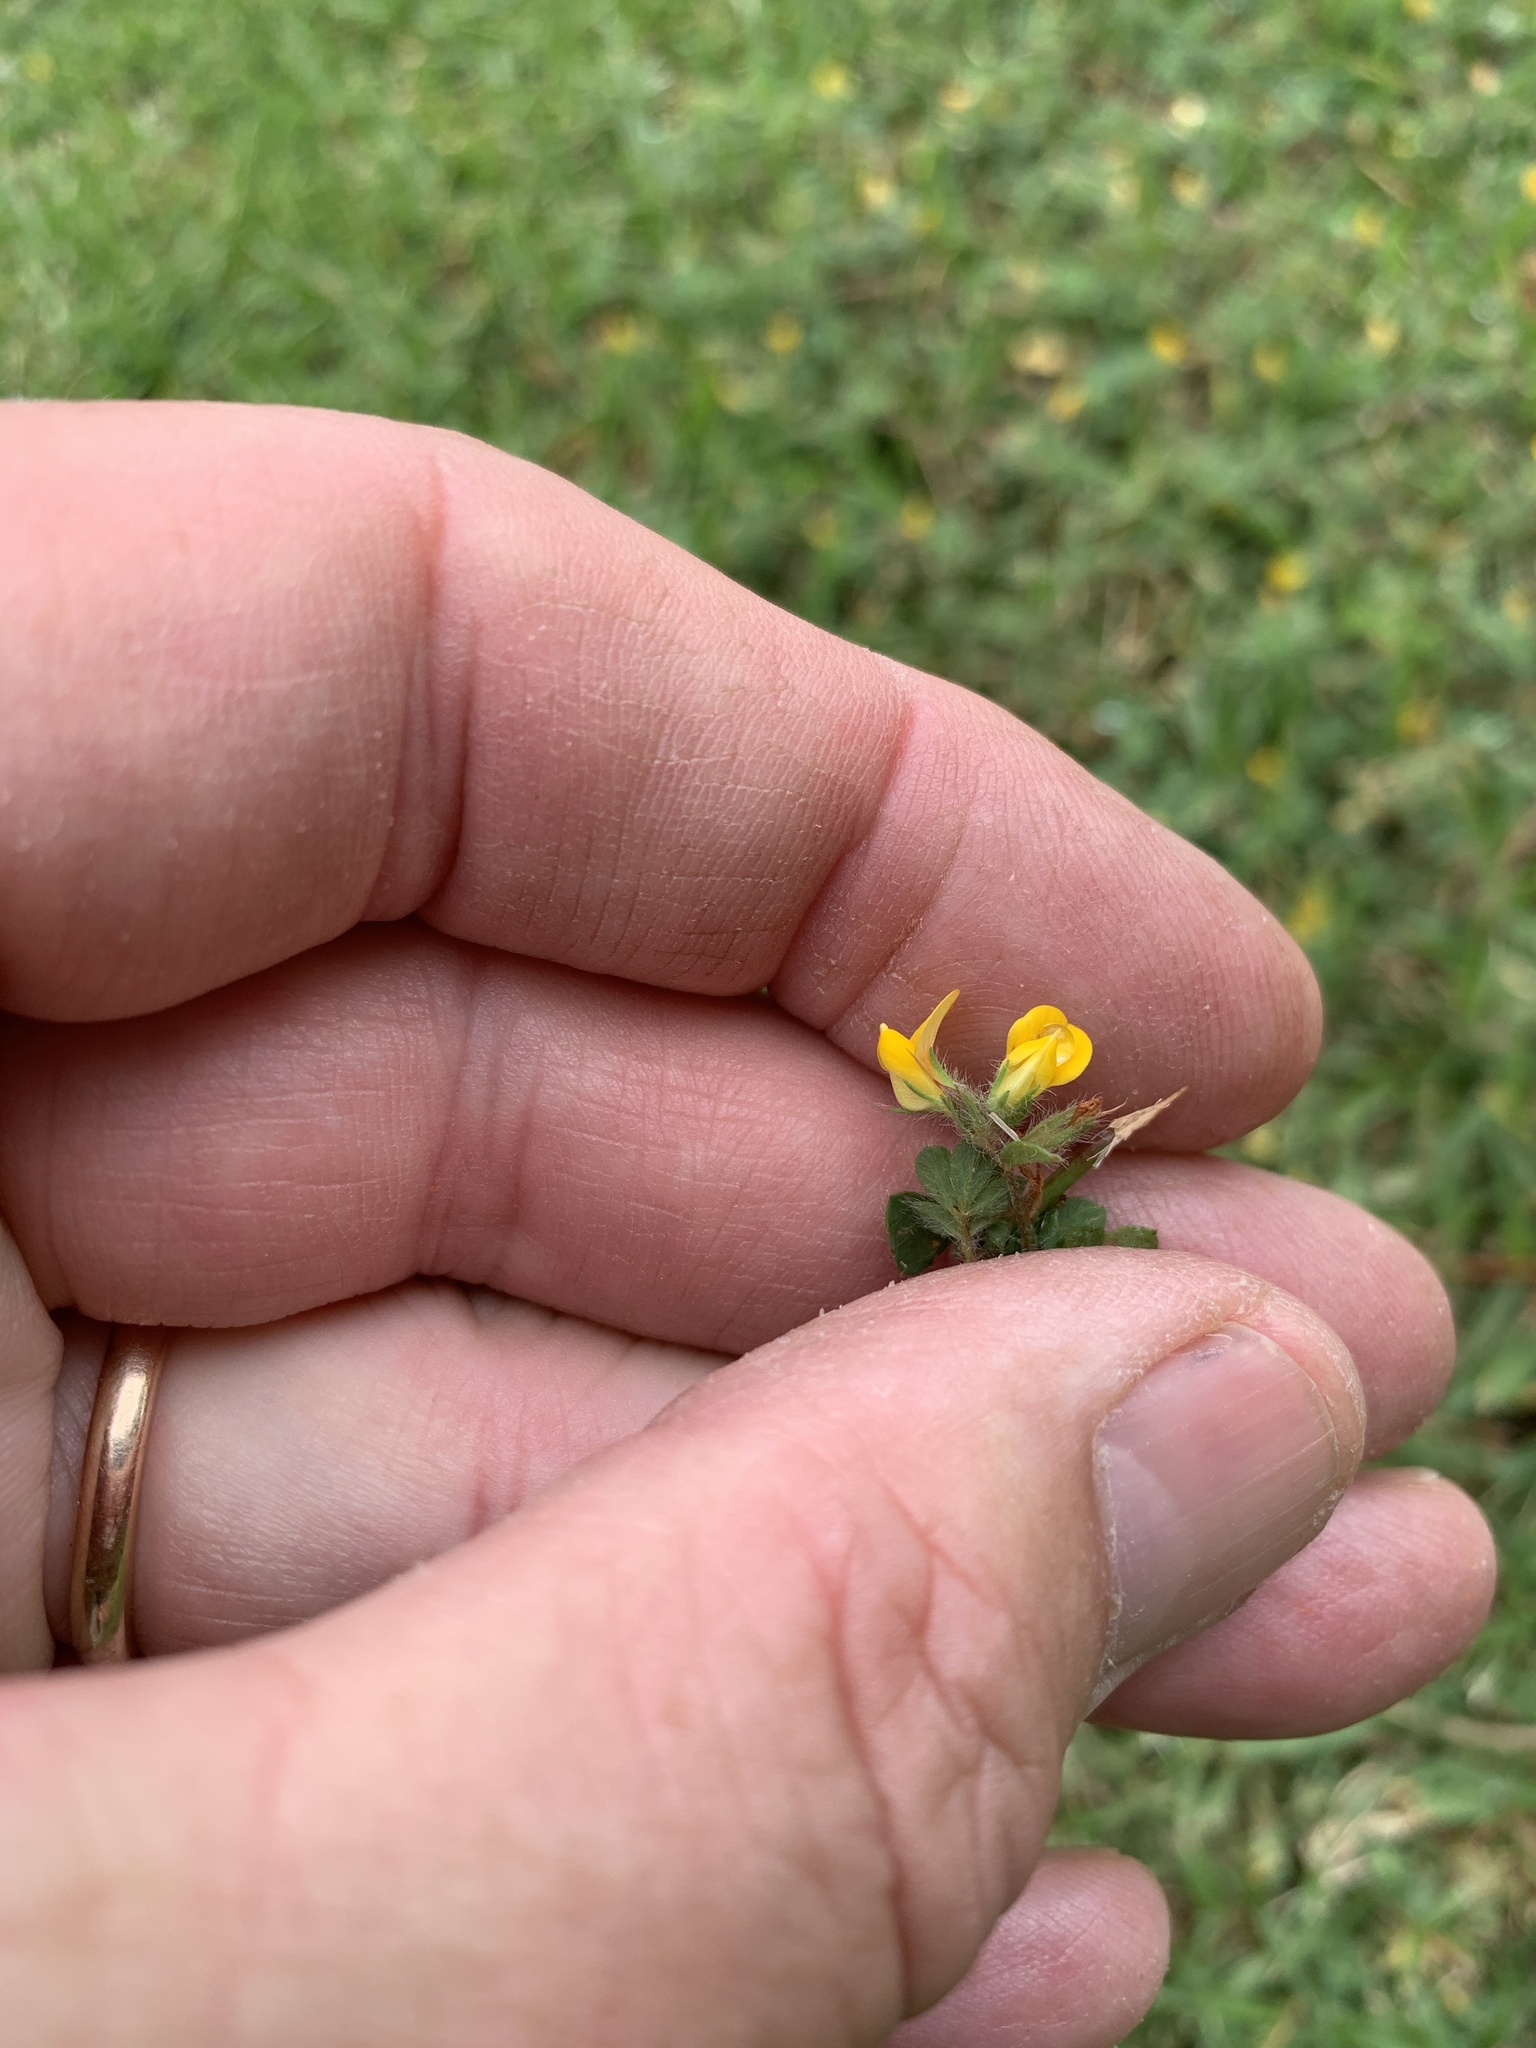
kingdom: Plantae
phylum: Tracheophyta
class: Magnoliopsida
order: Fabales
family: Fabaceae
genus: Lotus
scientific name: Lotus subbiflorus
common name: Hairy bird's-foot trefoil
